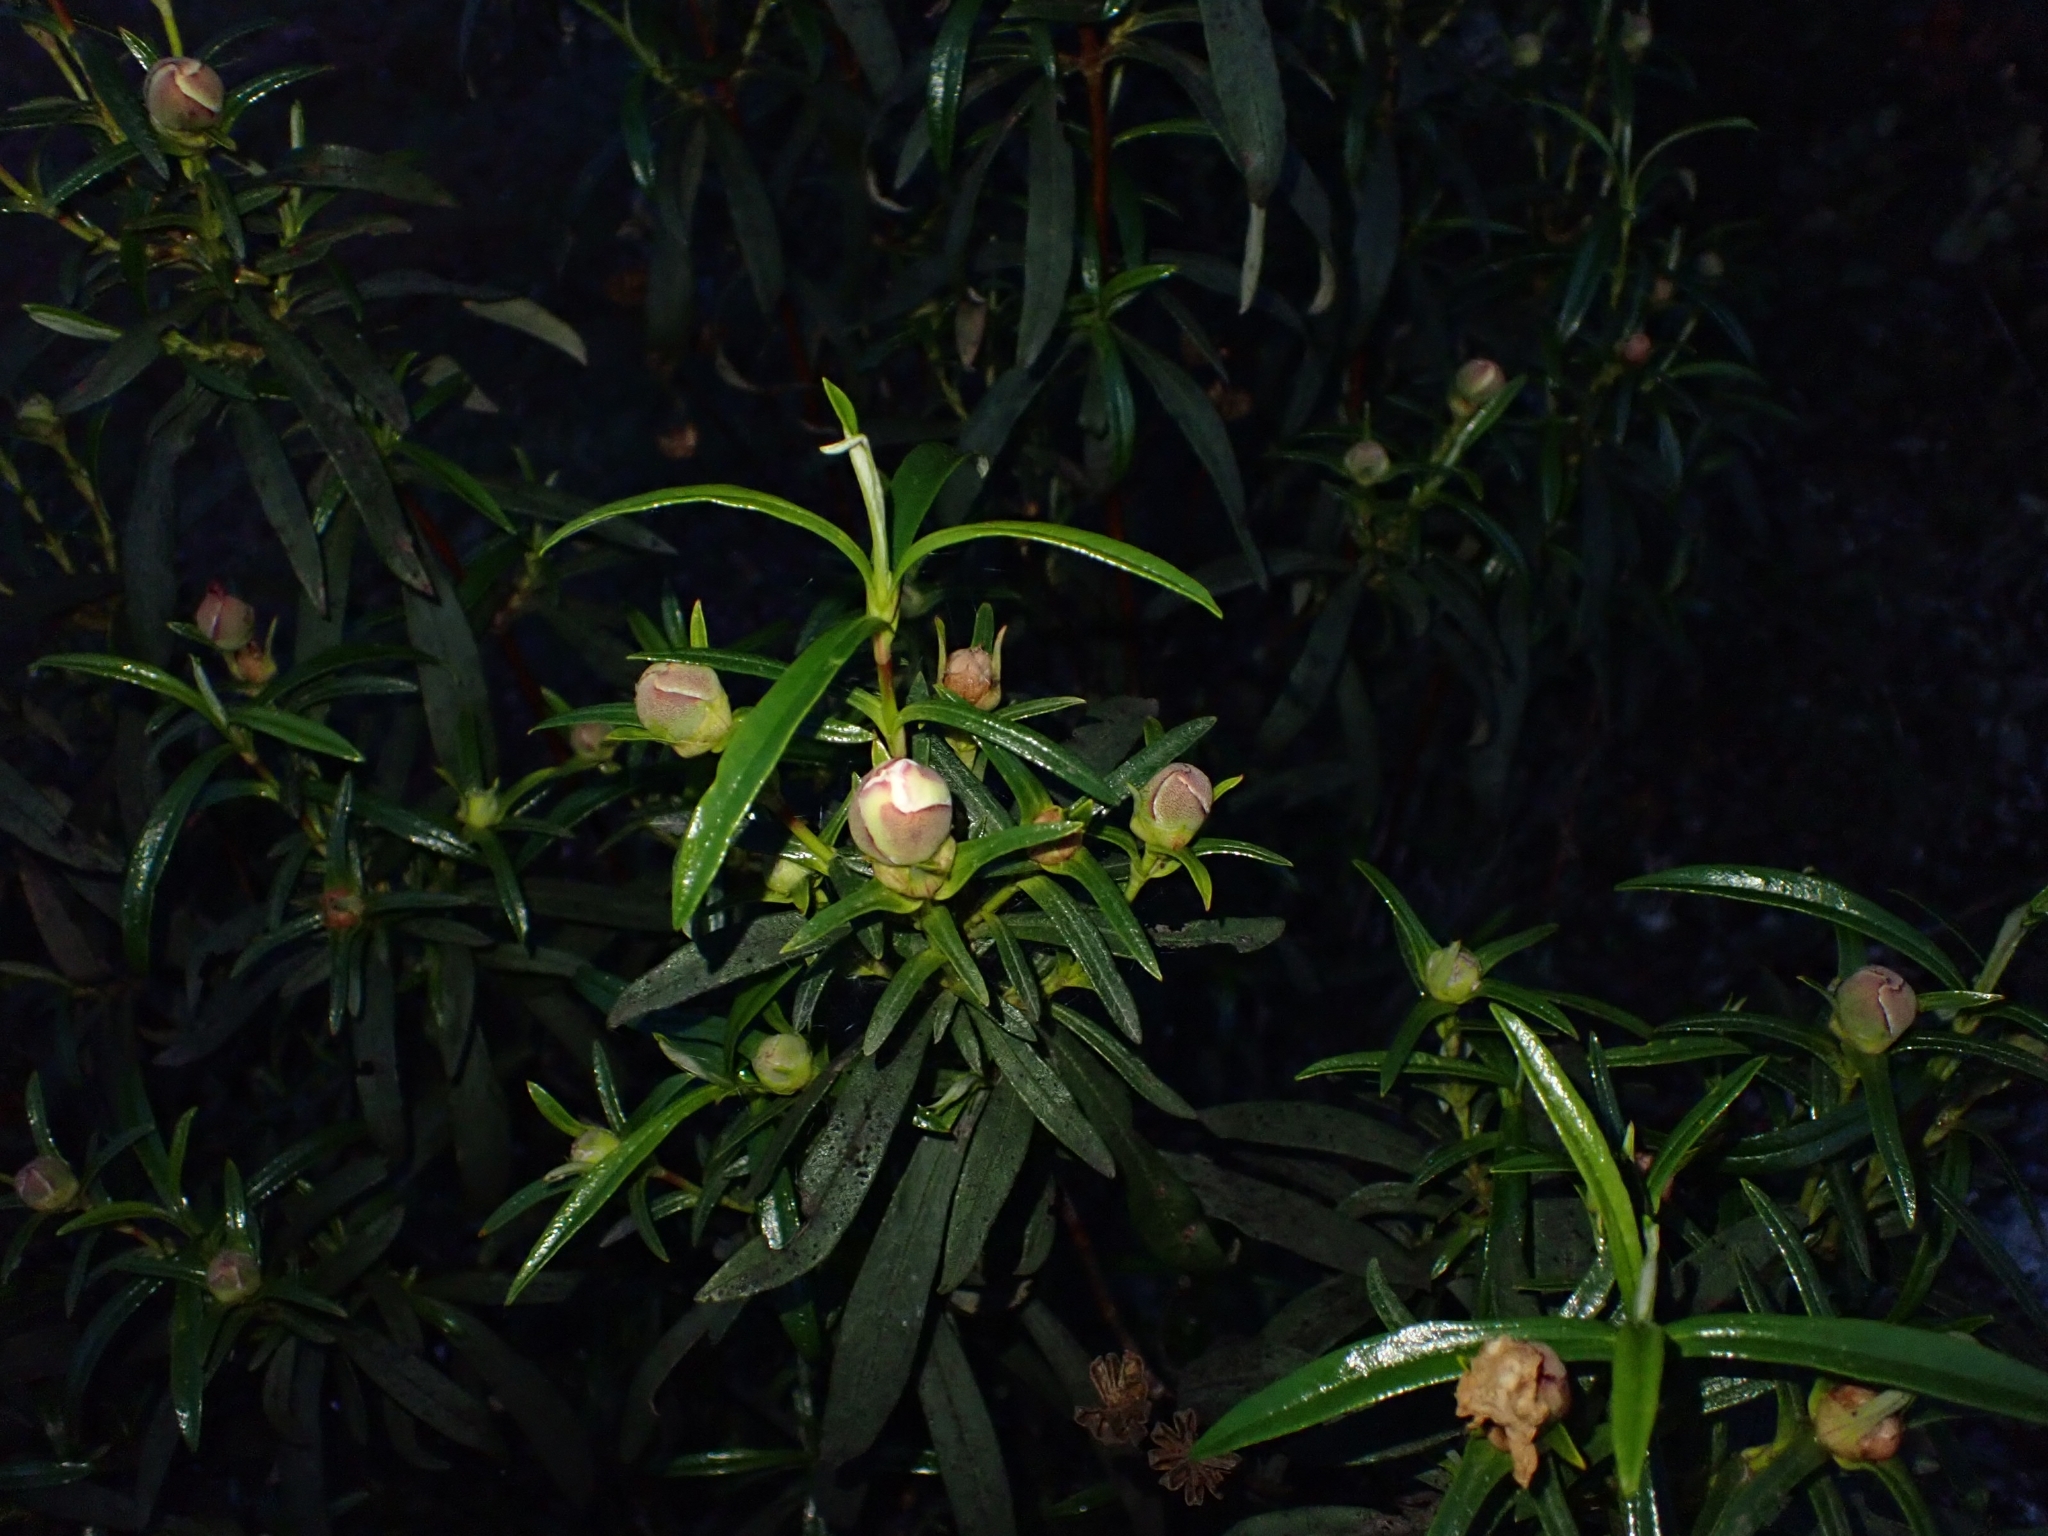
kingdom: Plantae
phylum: Tracheophyta
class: Magnoliopsida
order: Malvales
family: Cistaceae
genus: Cistus
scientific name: Cistus ladanifer
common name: Common gum cistus
